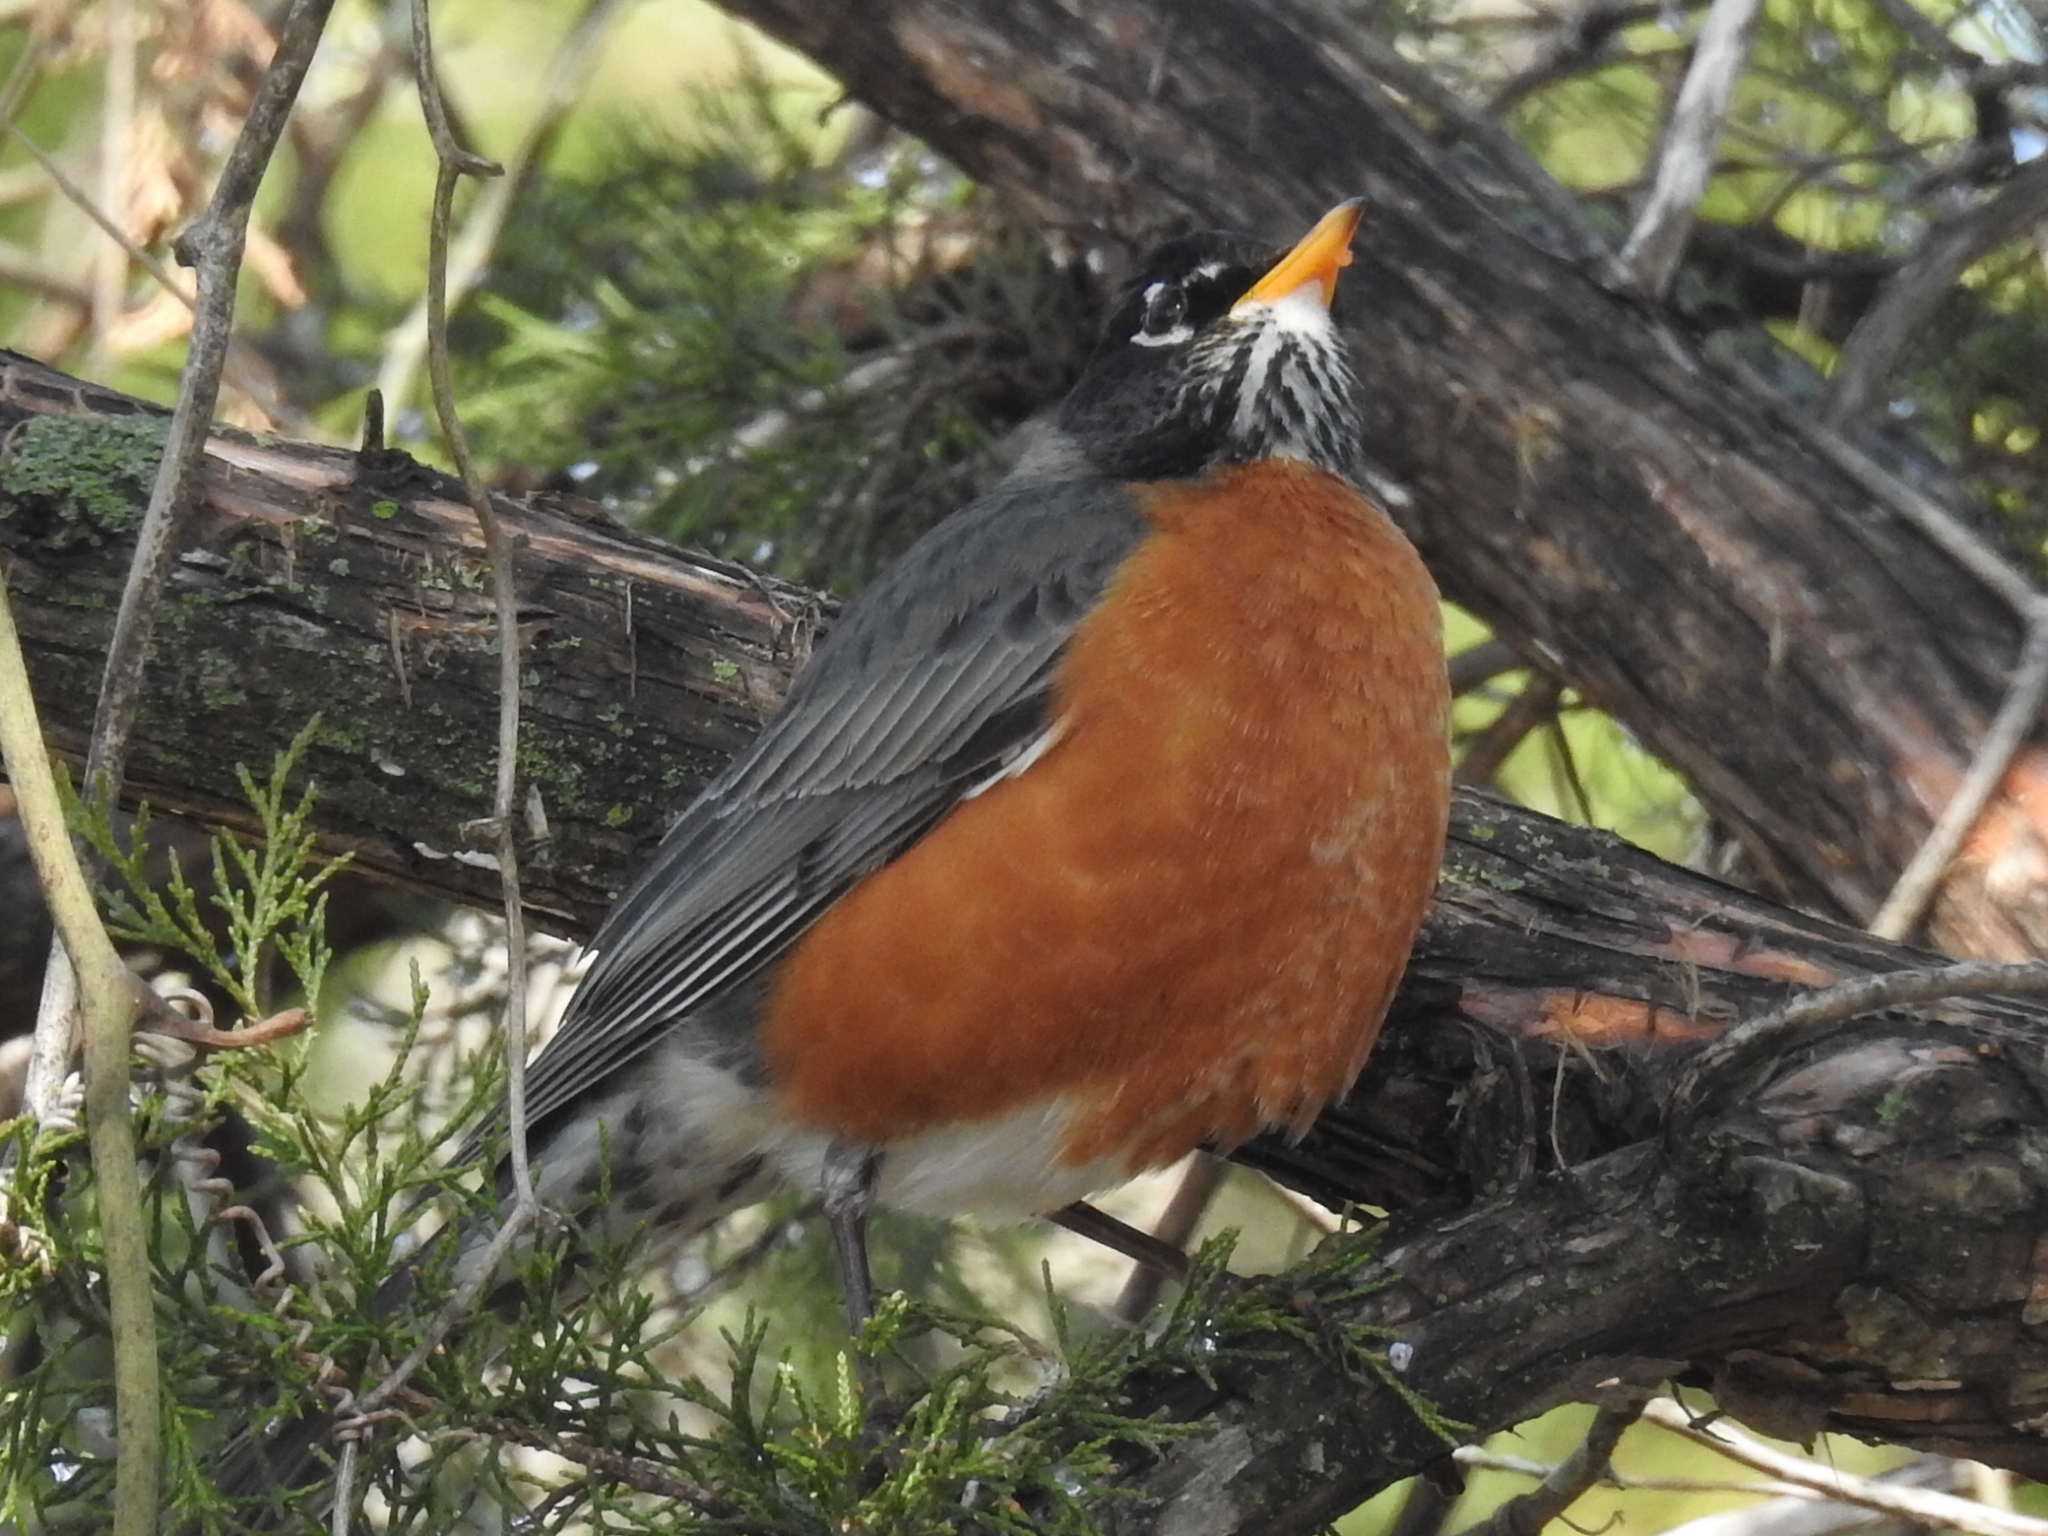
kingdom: Animalia
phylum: Chordata
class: Aves
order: Passeriformes
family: Turdidae
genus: Turdus
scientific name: Turdus migratorius
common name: American robin
